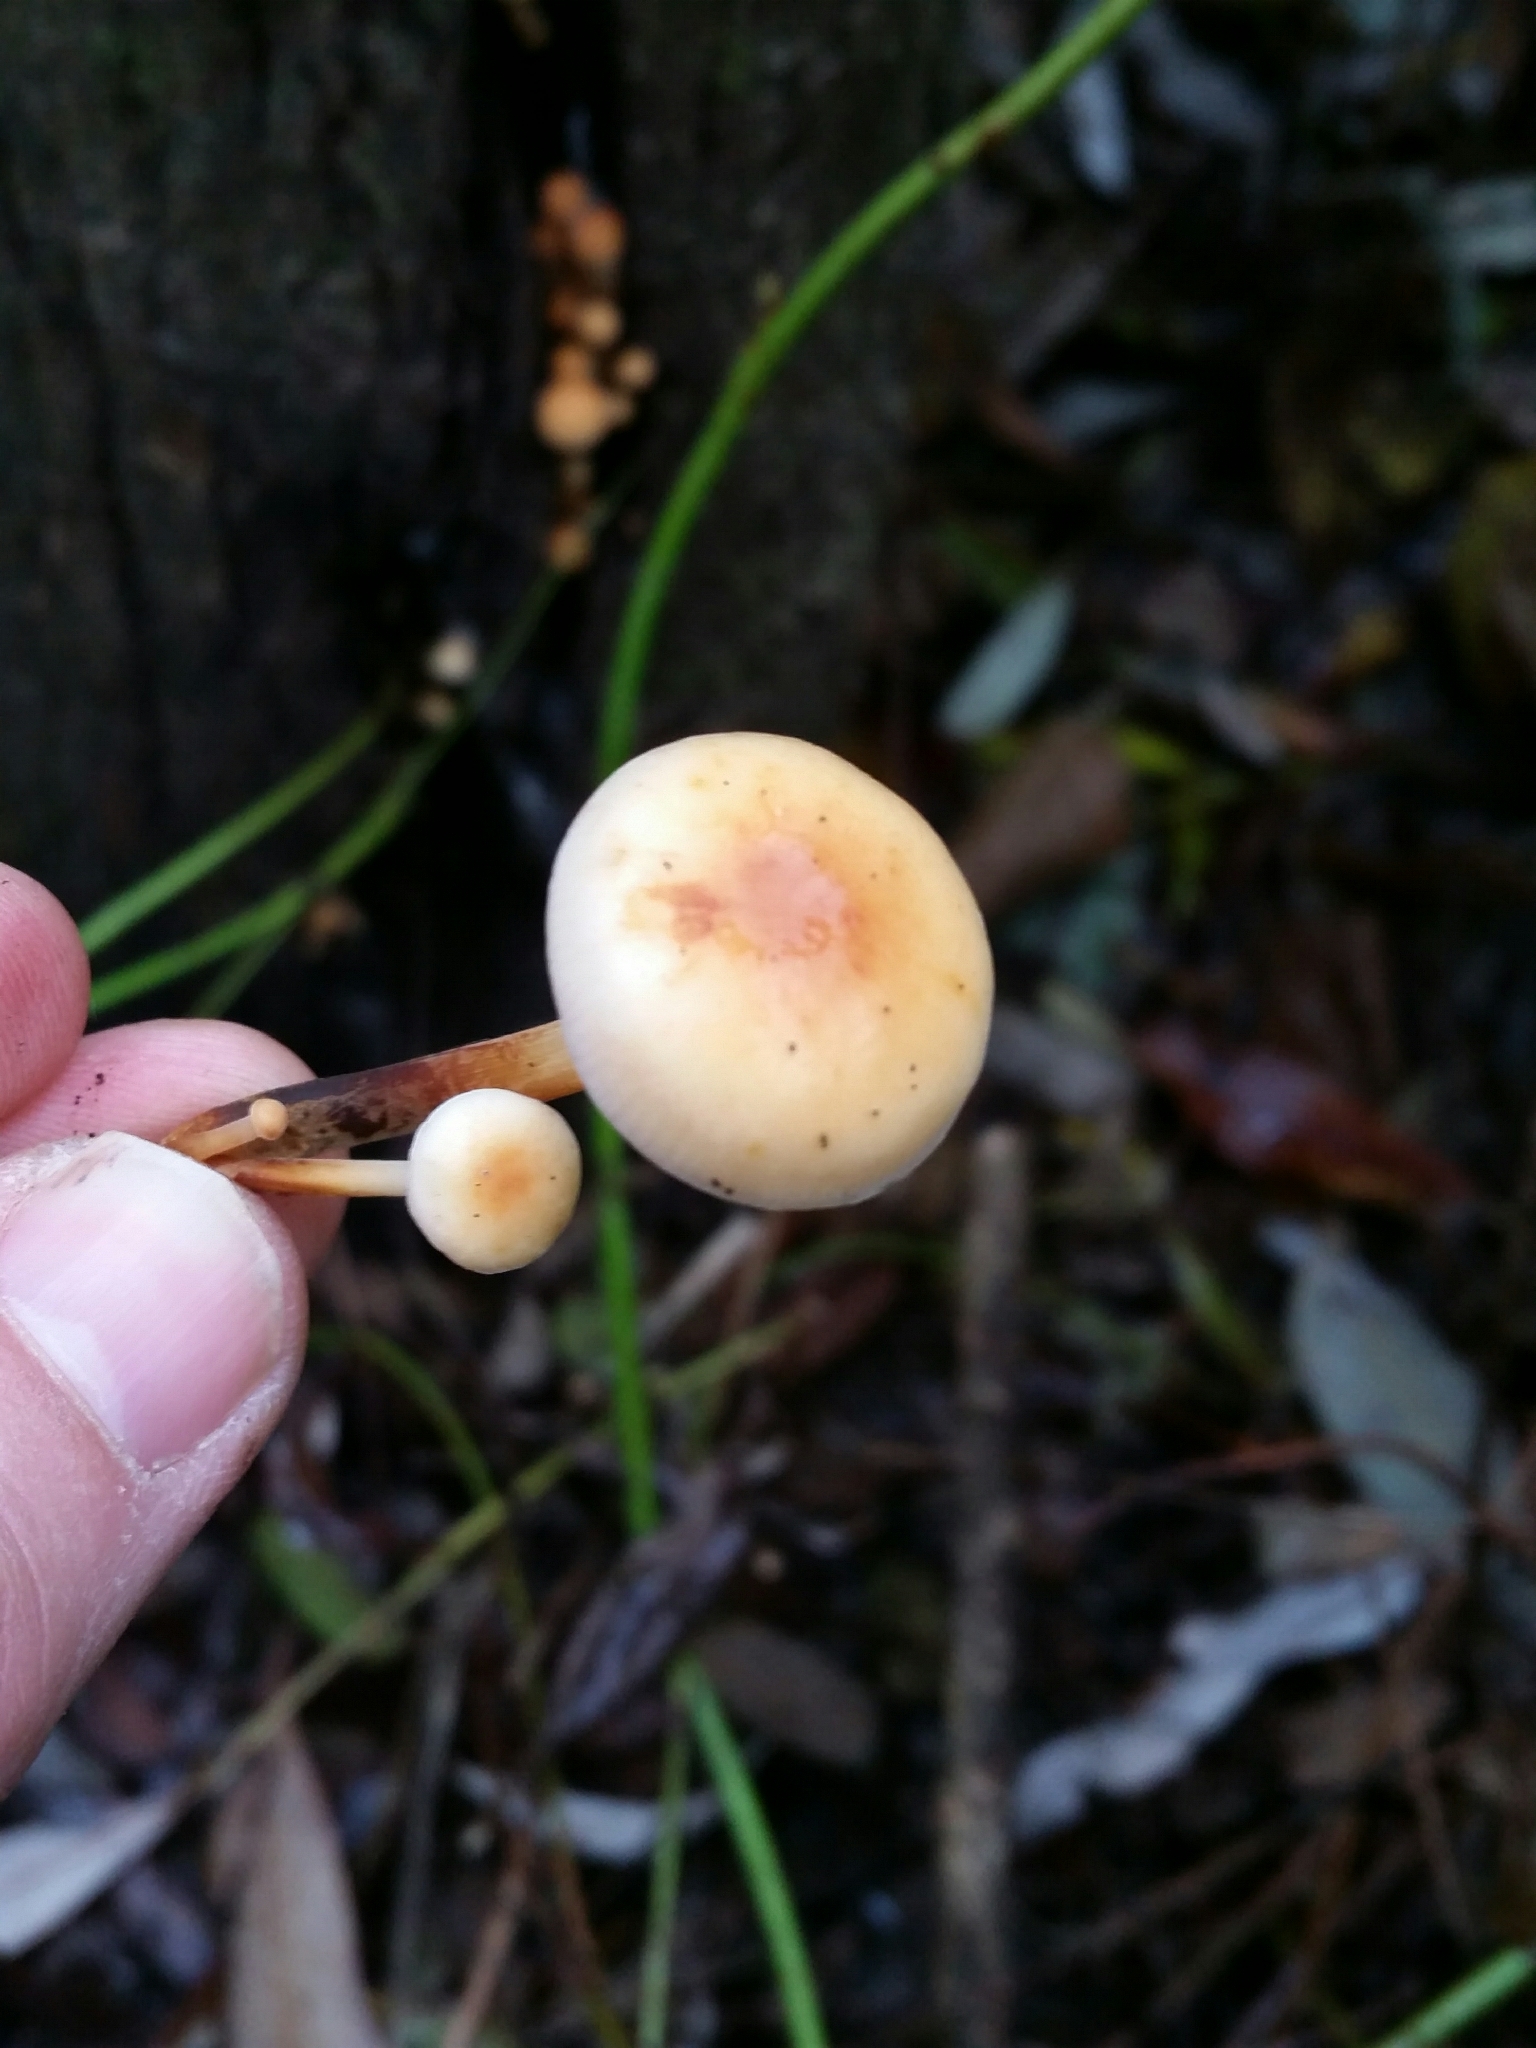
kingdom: Fungi
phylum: Basidiomycota
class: Agaricomycetes
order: Agaricales
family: Physalacriaceae
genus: Flammulina
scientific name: Flammulina
